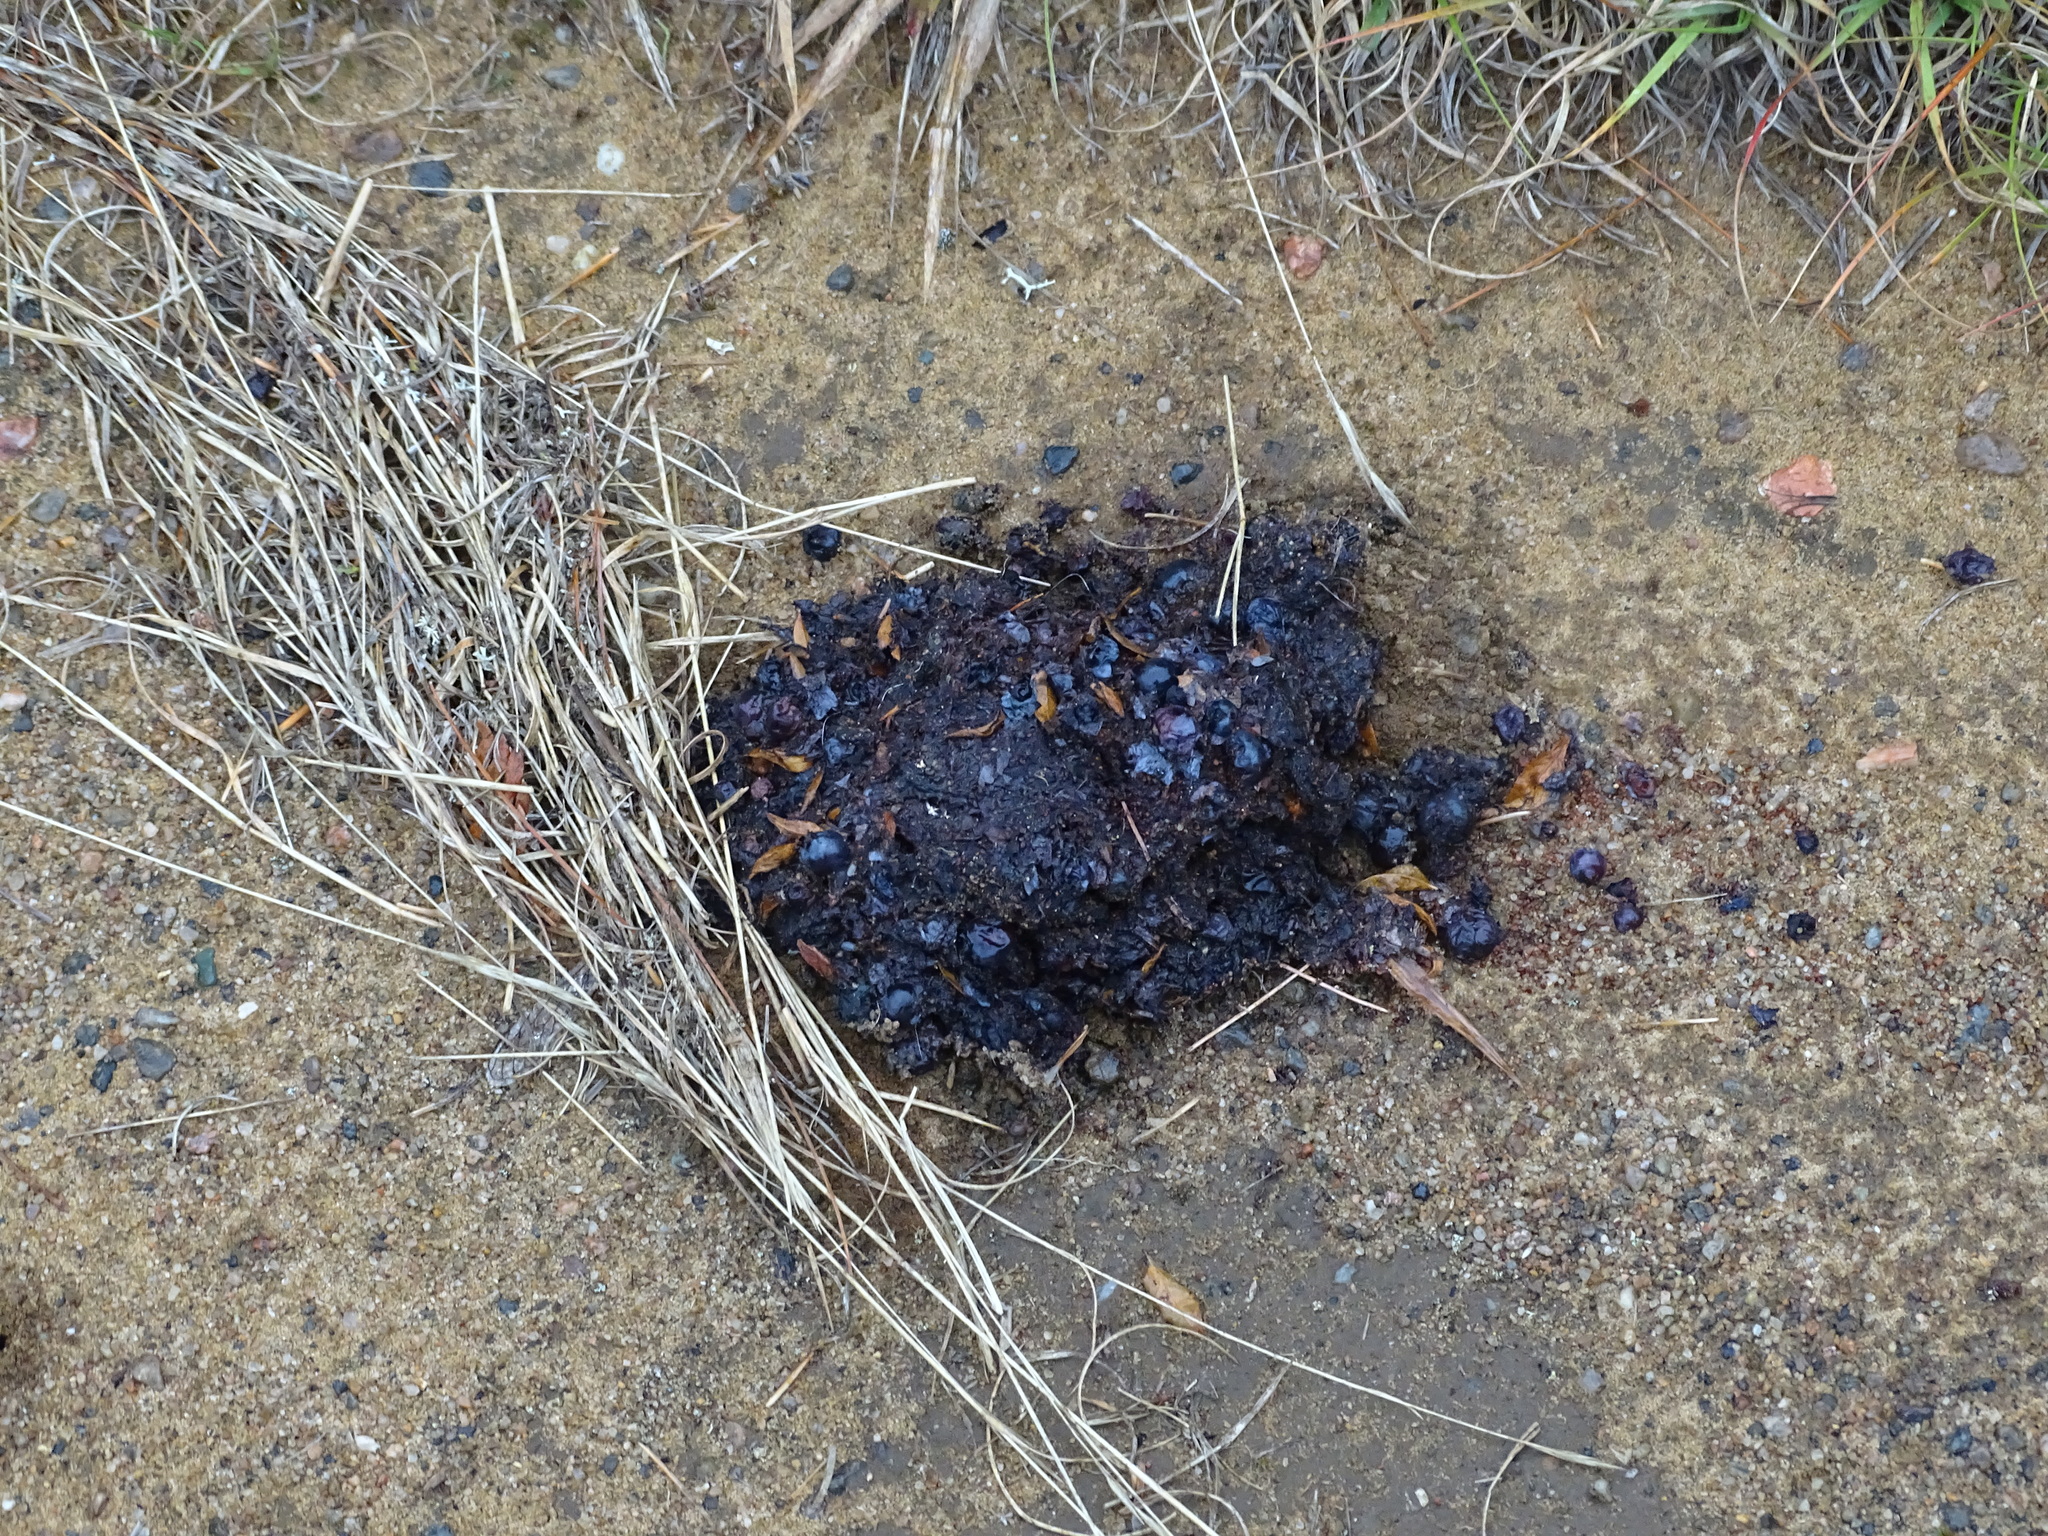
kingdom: Animalia
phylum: Chordata
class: Mammalia
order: Carnivora
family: Ursidae
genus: Ursus
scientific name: Ursus americanus
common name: American black bear
